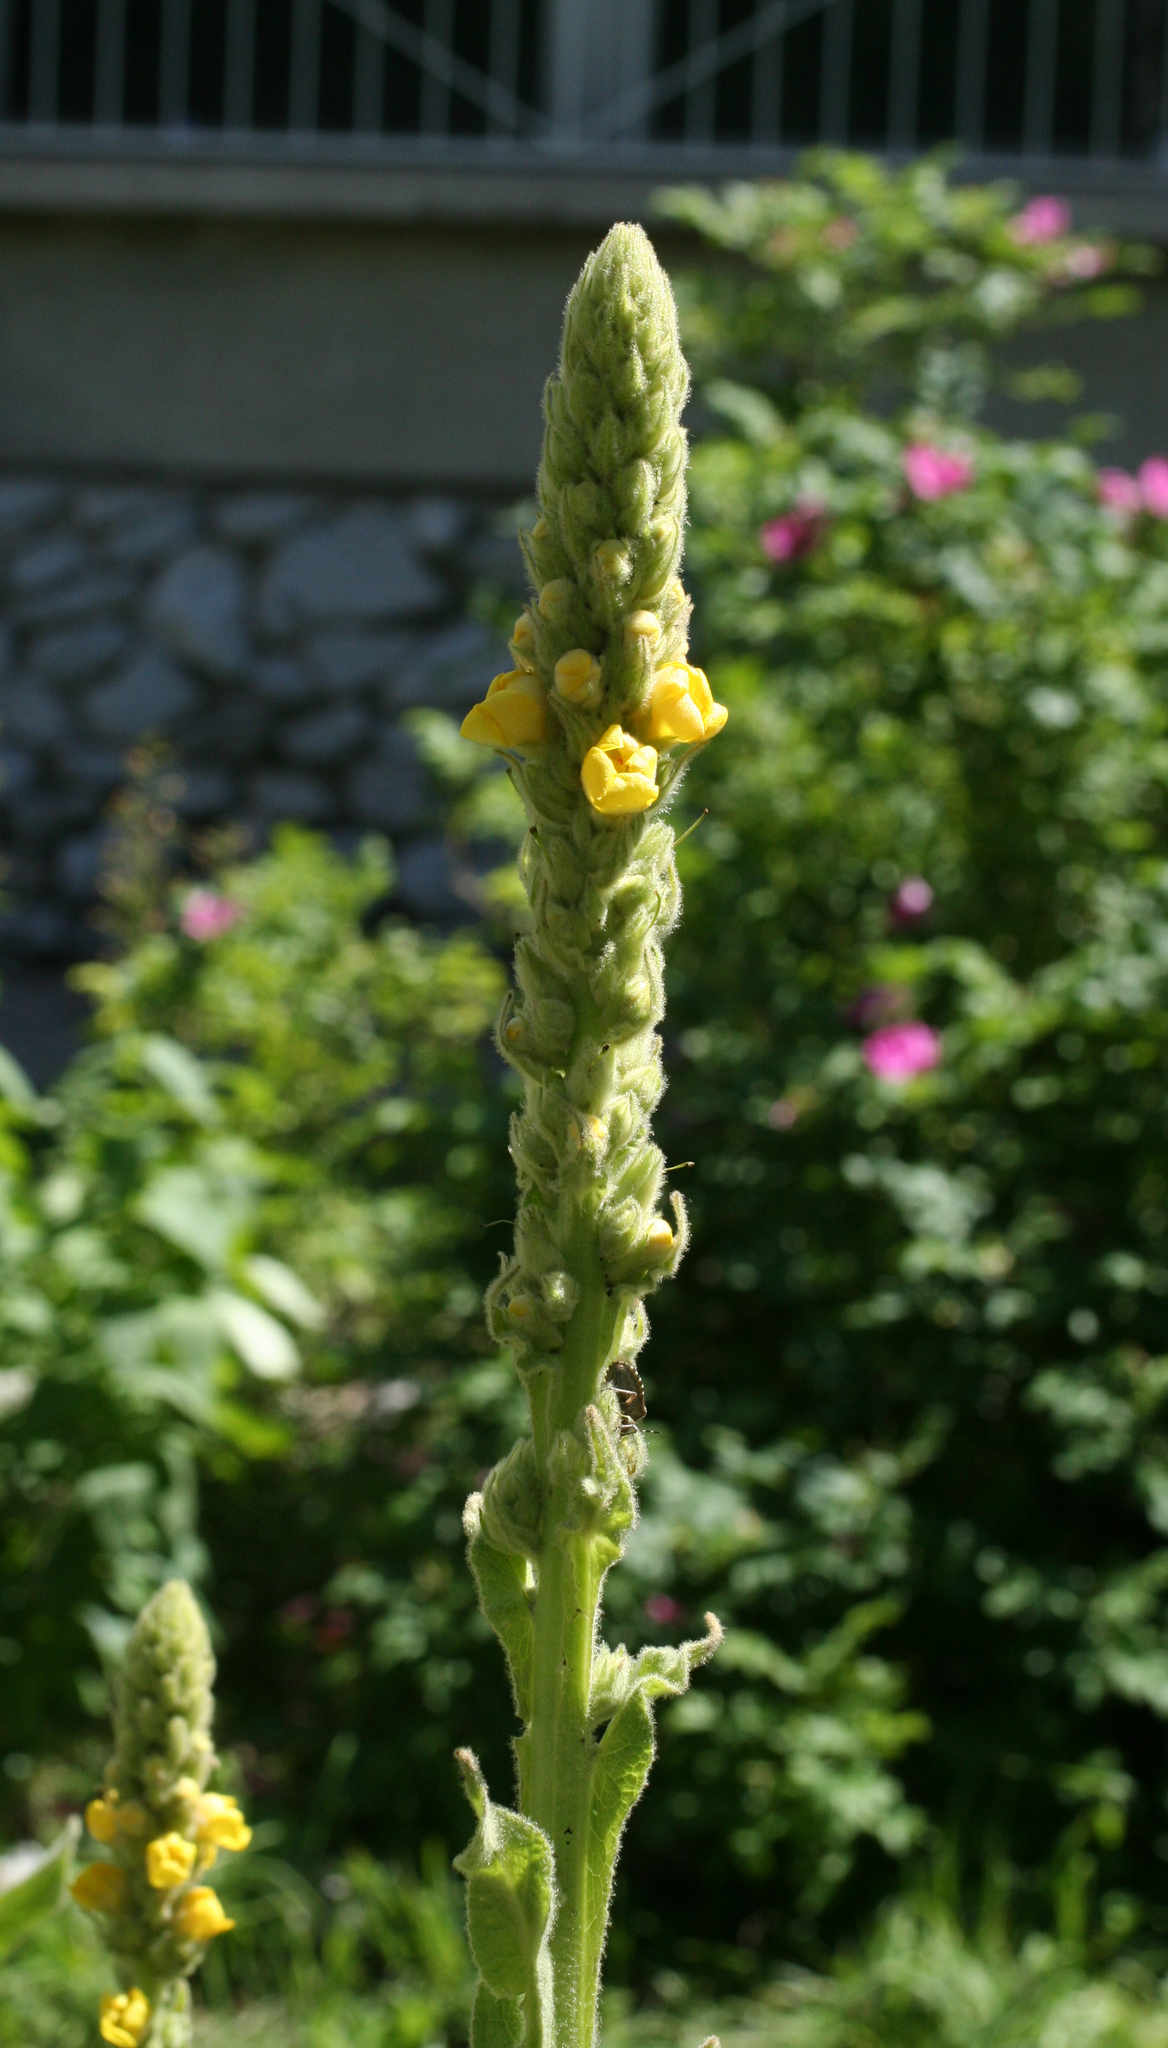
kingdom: Plantae
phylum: Tracheophyta
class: Magnoliopsida
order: Lamiales
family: Scrophulariaceae
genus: Verbascum
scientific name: Verbascum thapsus
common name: Common mullein
